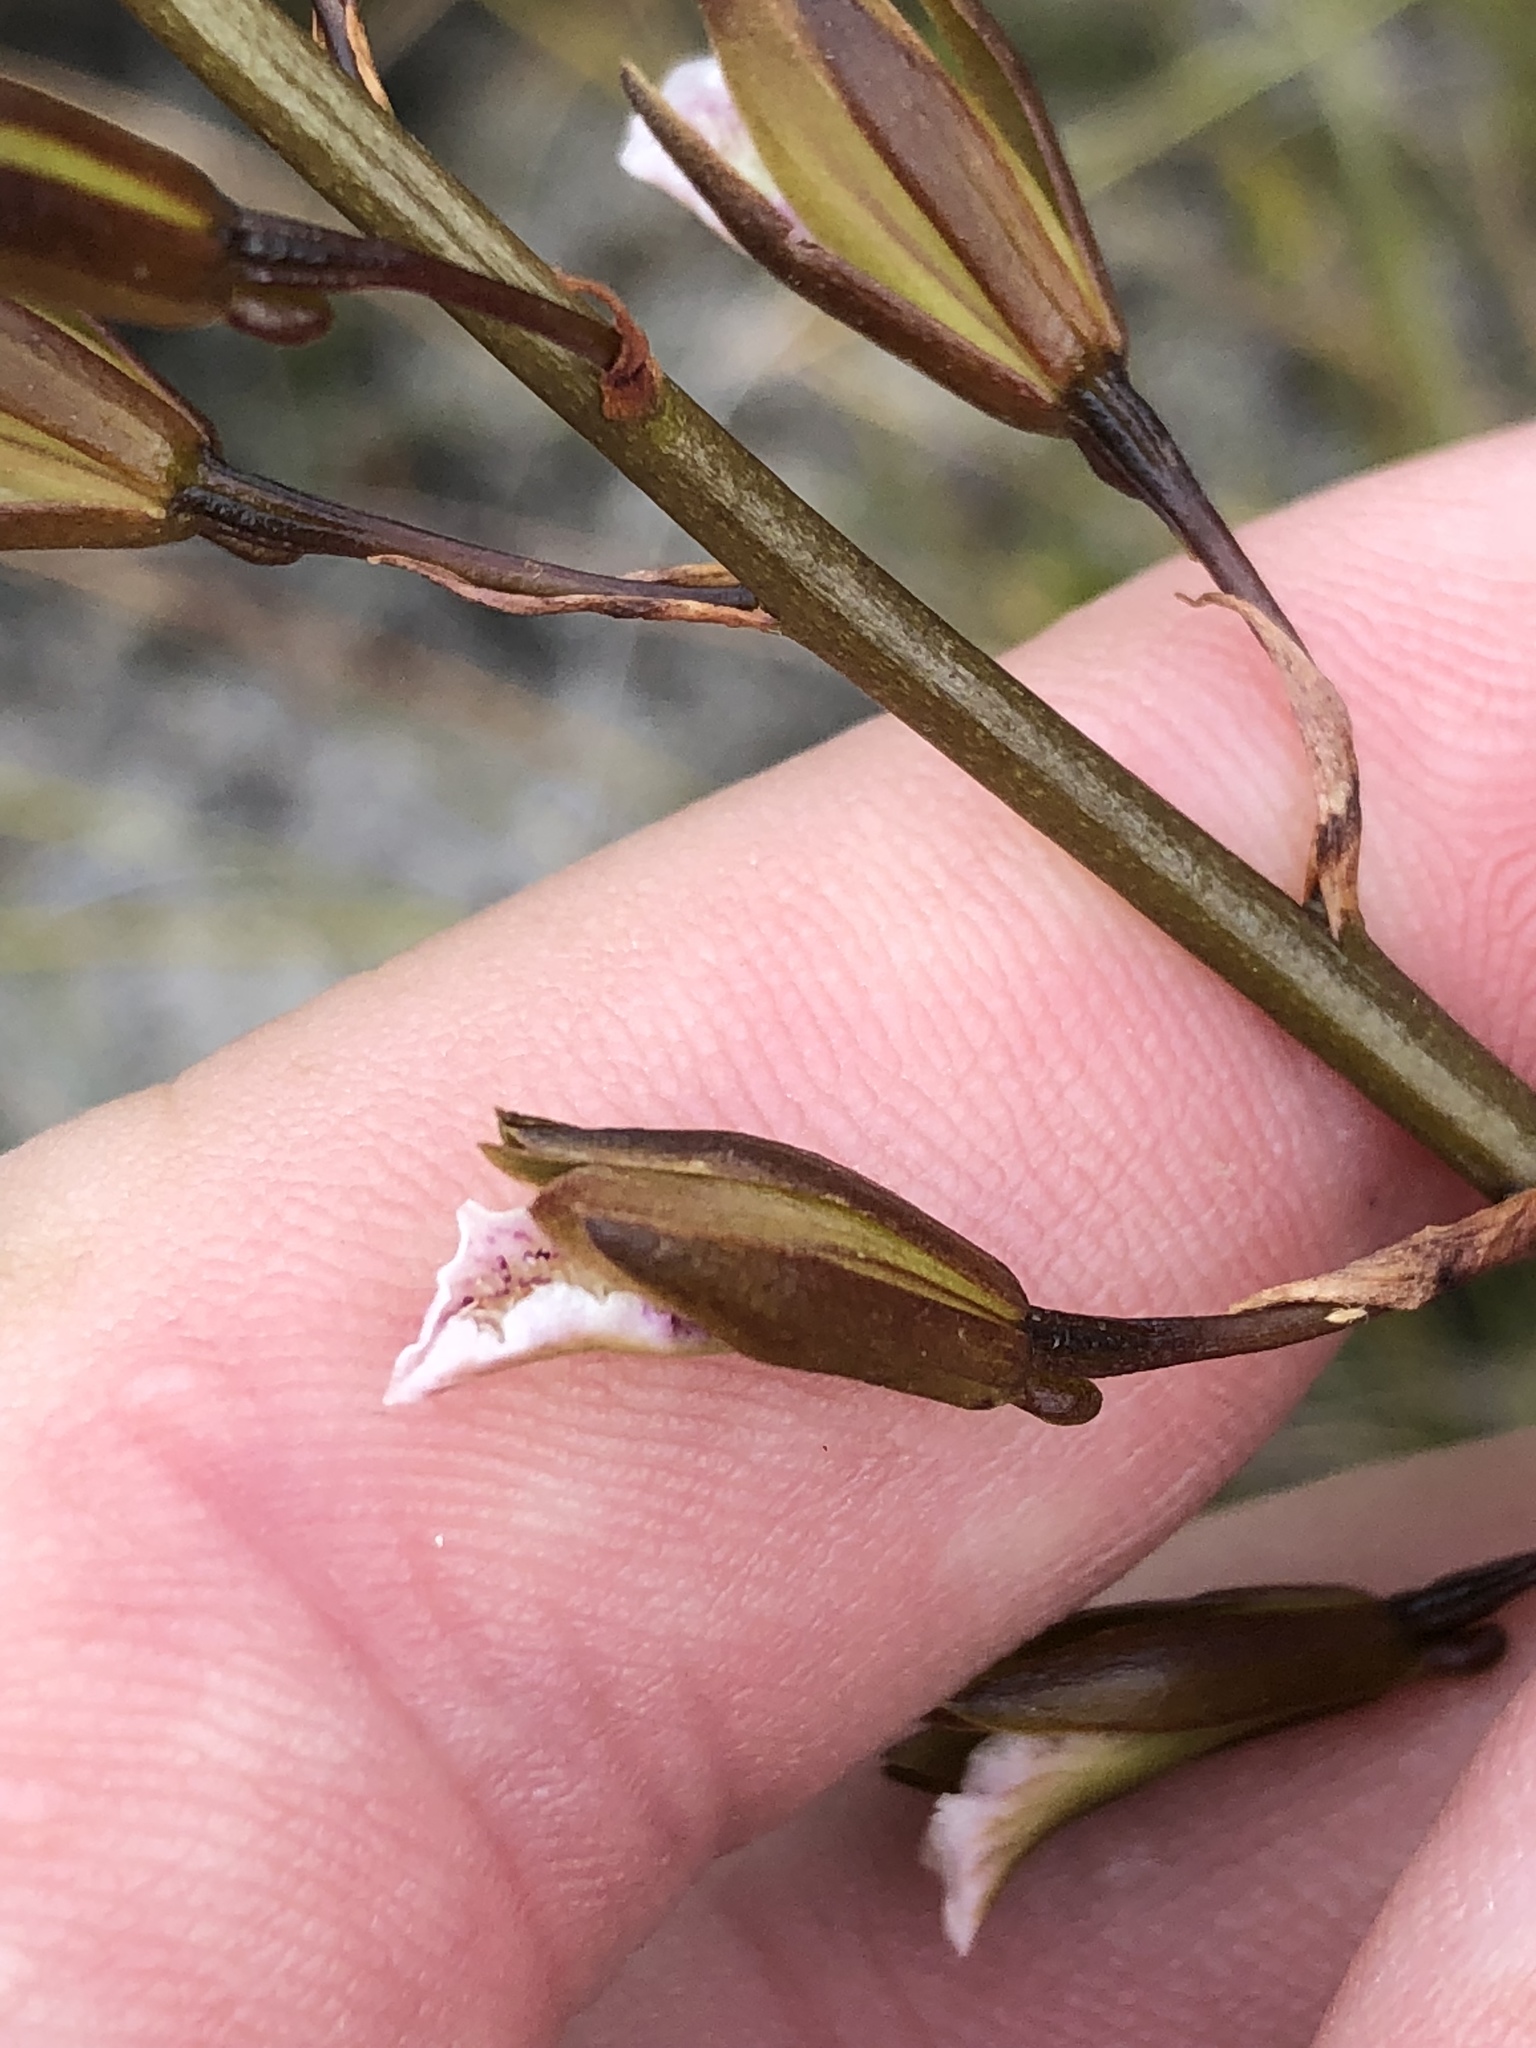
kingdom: Plantae
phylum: Tracheophyta
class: Liliopsida
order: Asparagales
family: Orchidaceae
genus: Eulophia
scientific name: Eulophia tristis
